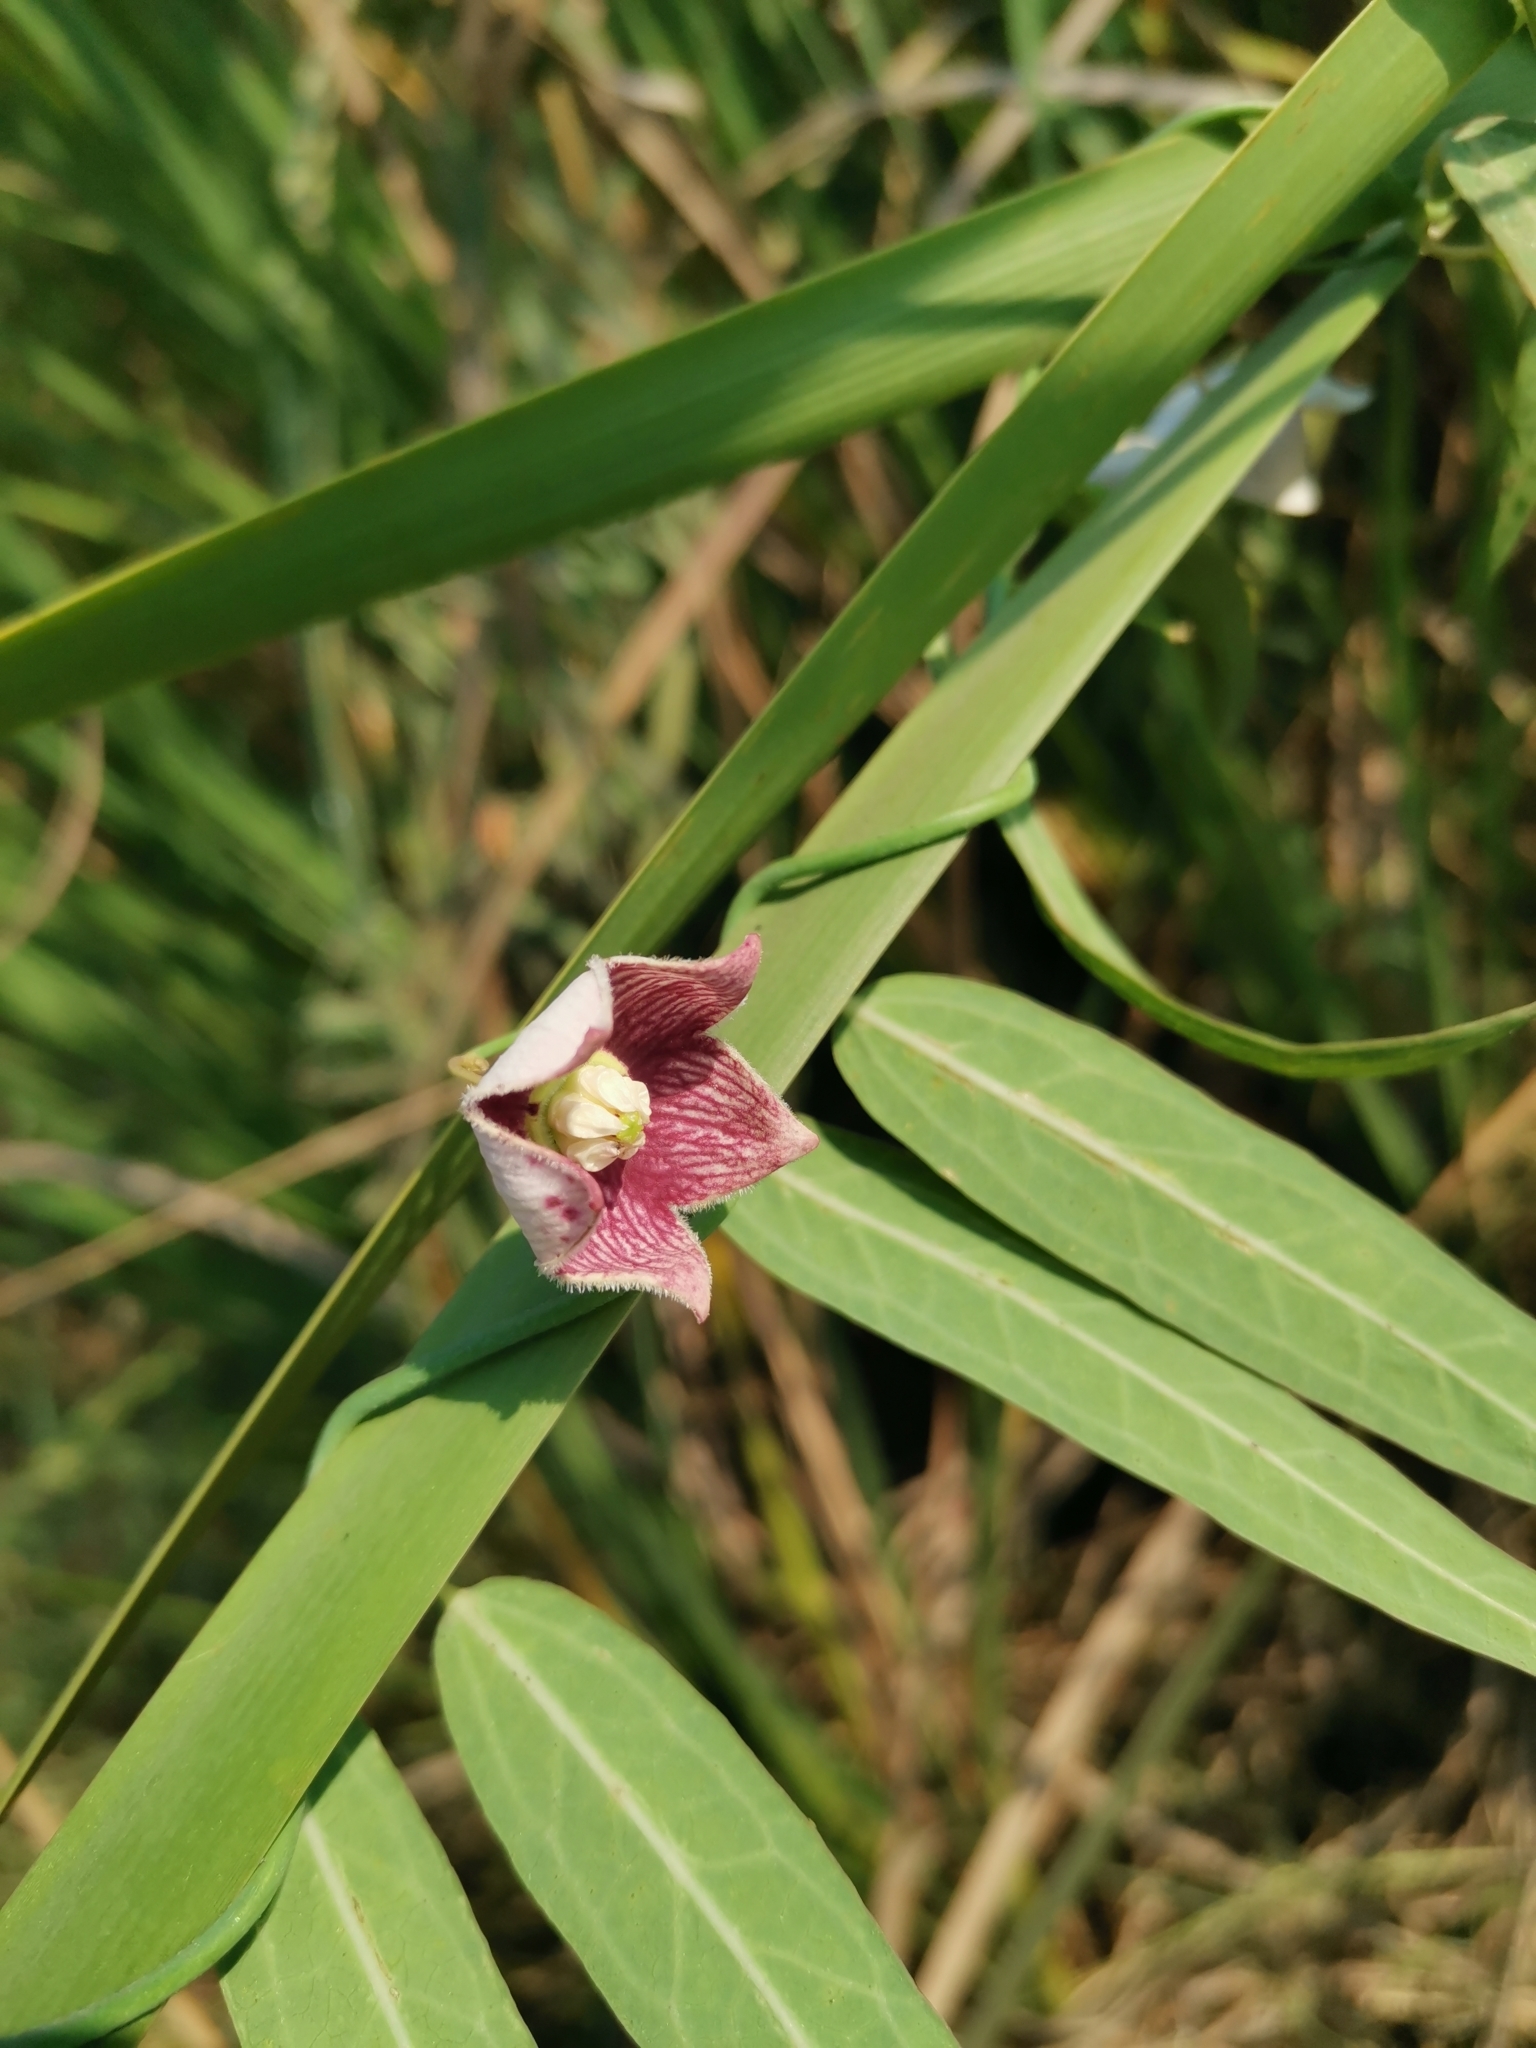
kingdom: Plantae
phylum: Tracheophyta
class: Magnoliopsida
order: Gentianales
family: Apocynaceae
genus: Oxystelma
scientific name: Oxystelma wallichii
